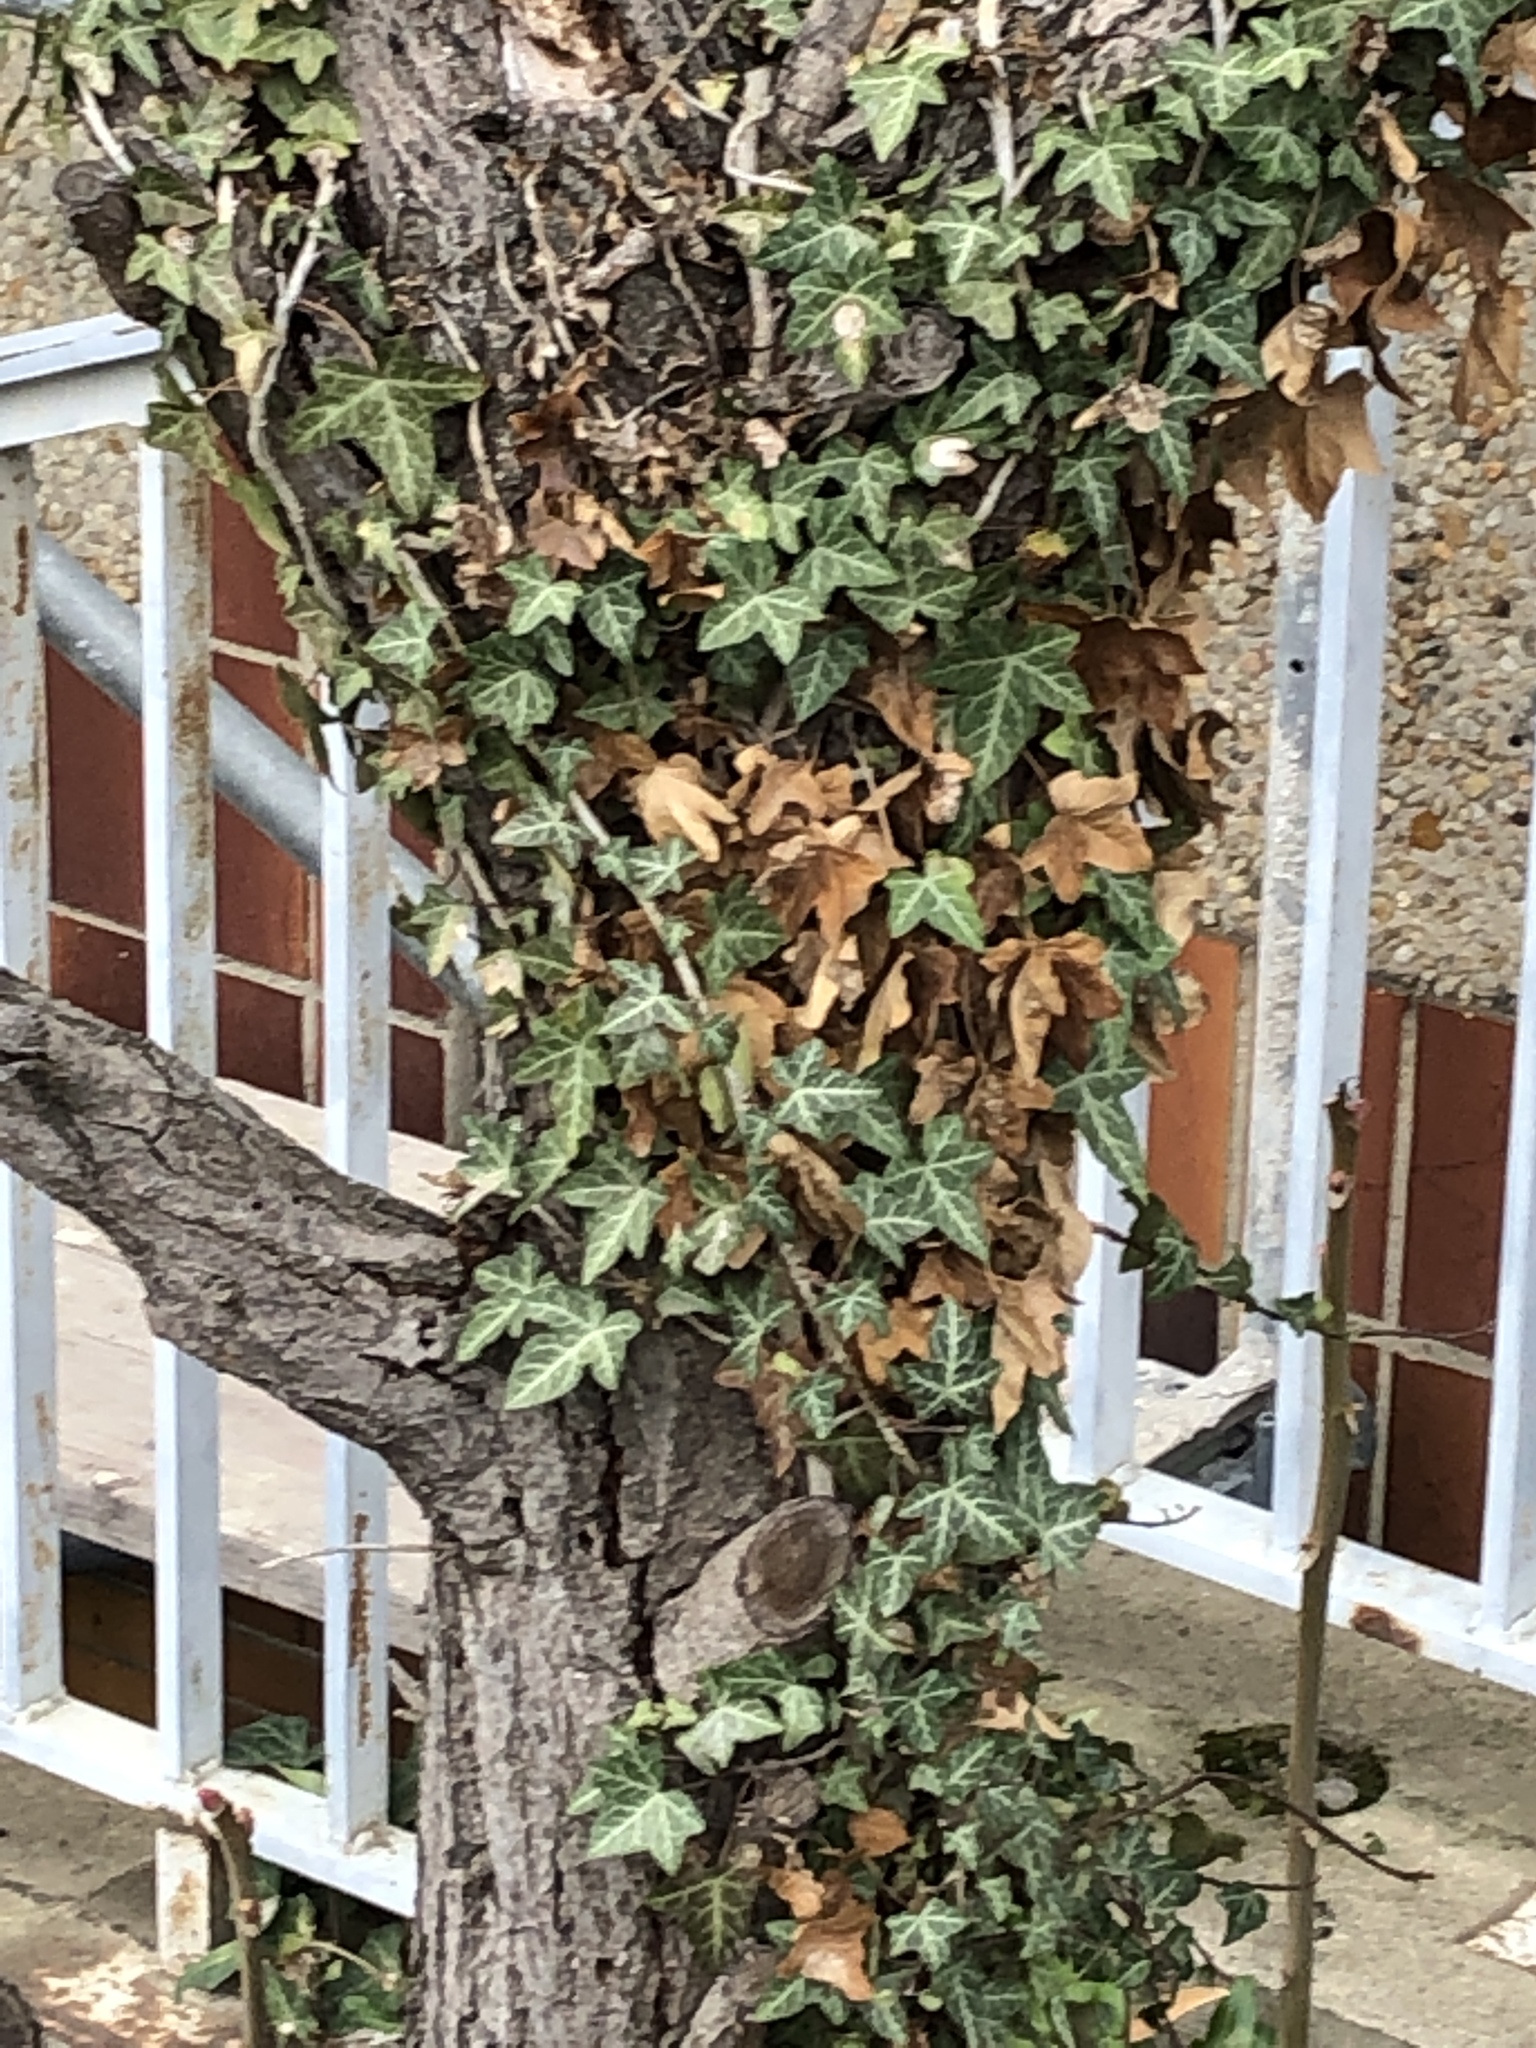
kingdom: Plantae
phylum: Tracheophyta
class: Magnoliopsida
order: Apiales
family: Araliaceae
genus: Hedera
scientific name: Hedera helix
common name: Ivy
